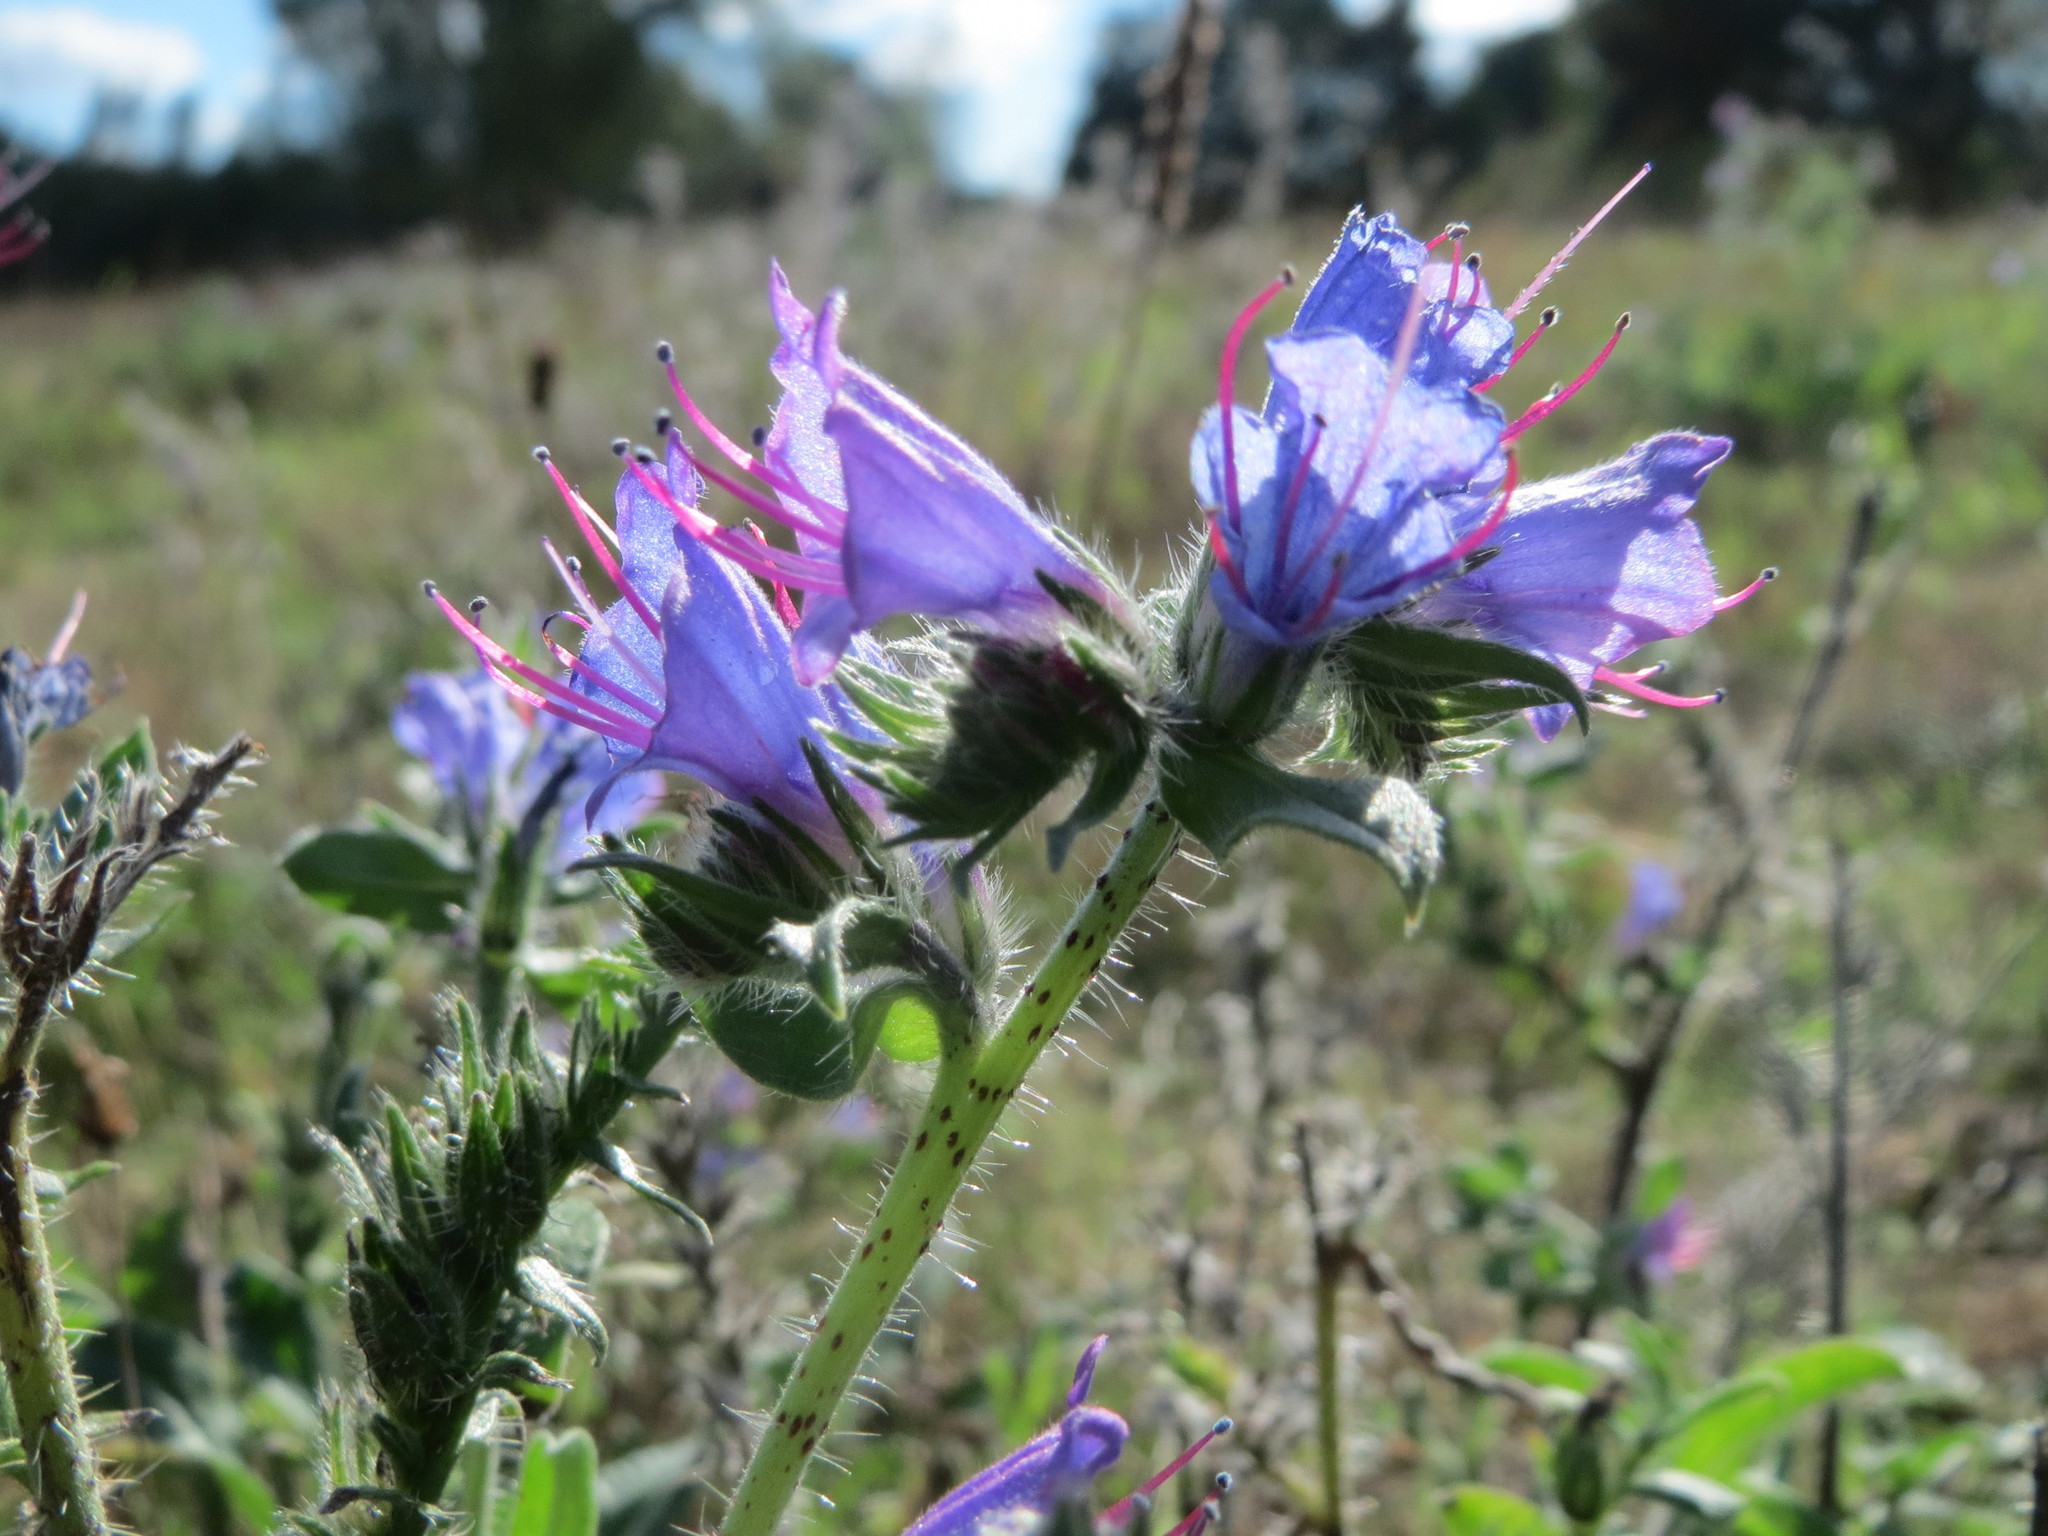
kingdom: Plantae
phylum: Tracheophyta
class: Magnoliopsida
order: Boraginales
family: Boraginaceae
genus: Echium
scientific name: Echium vulgare
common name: Common viper's bugloss
